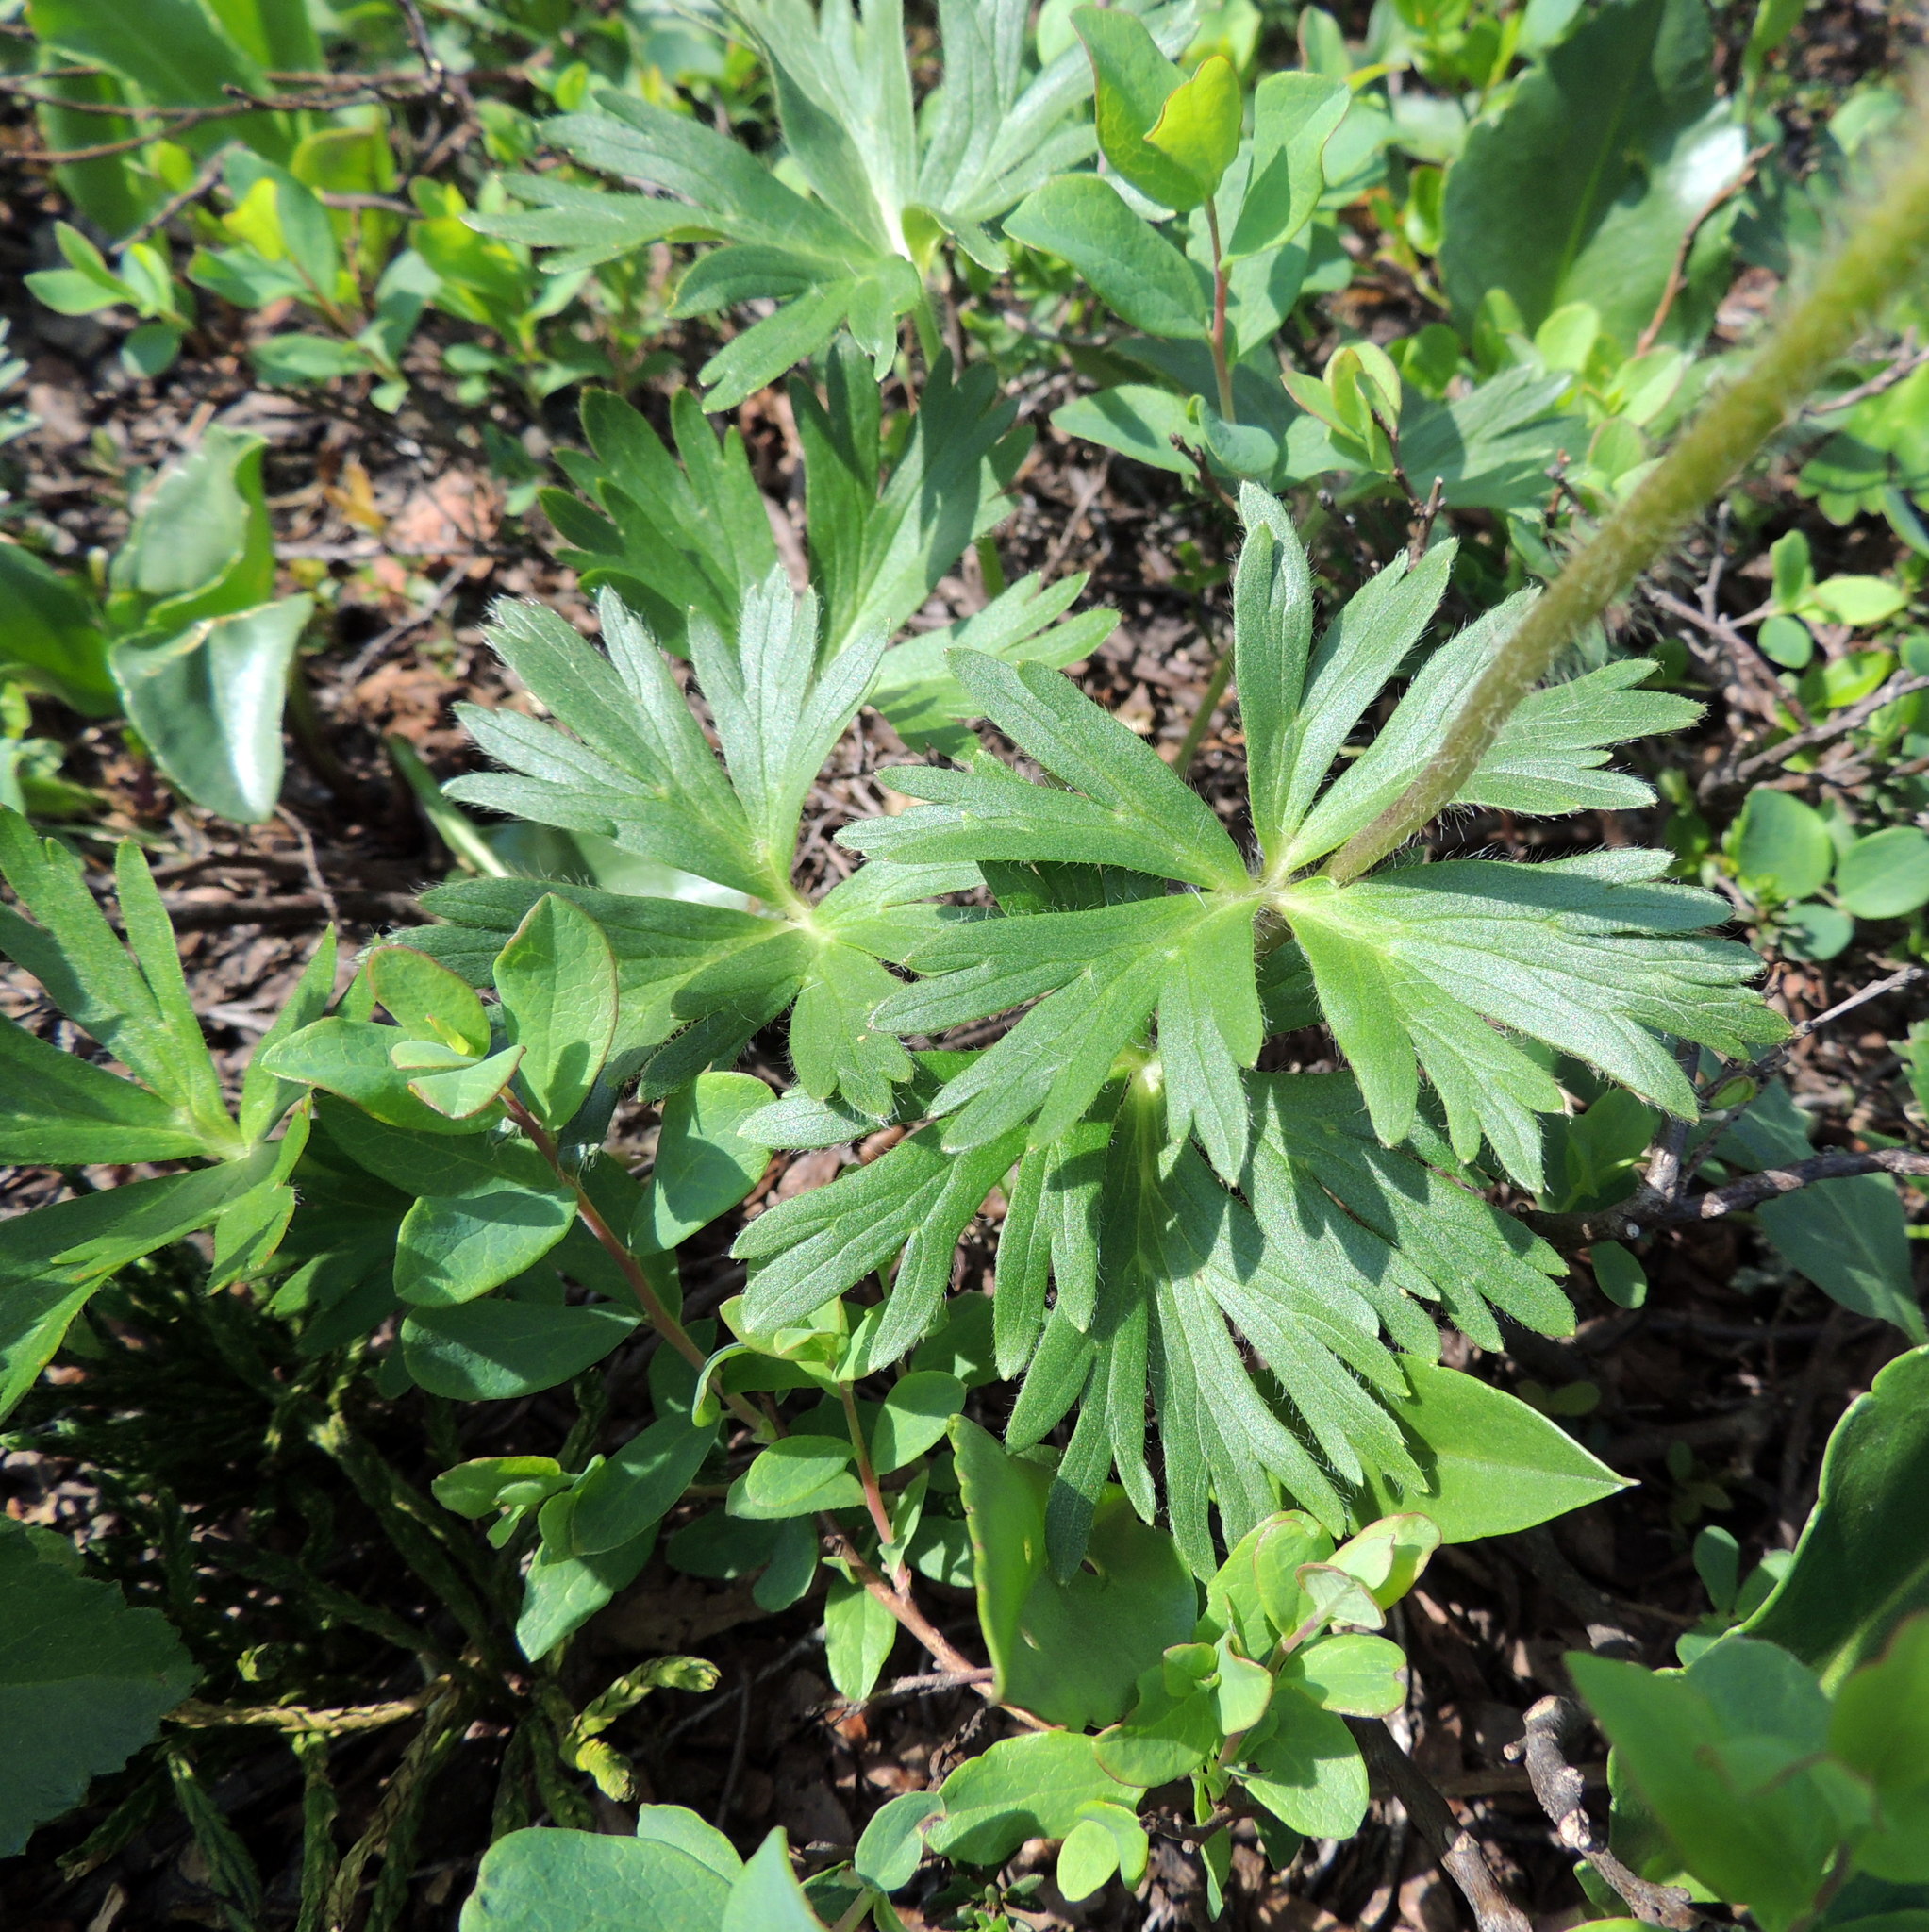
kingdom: Plantae
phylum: Tracheophyta
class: Magnoliopsida
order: Ranunculales
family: Ranunculaceae
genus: Anemonastrum
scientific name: Anemonastrum biarmiense
